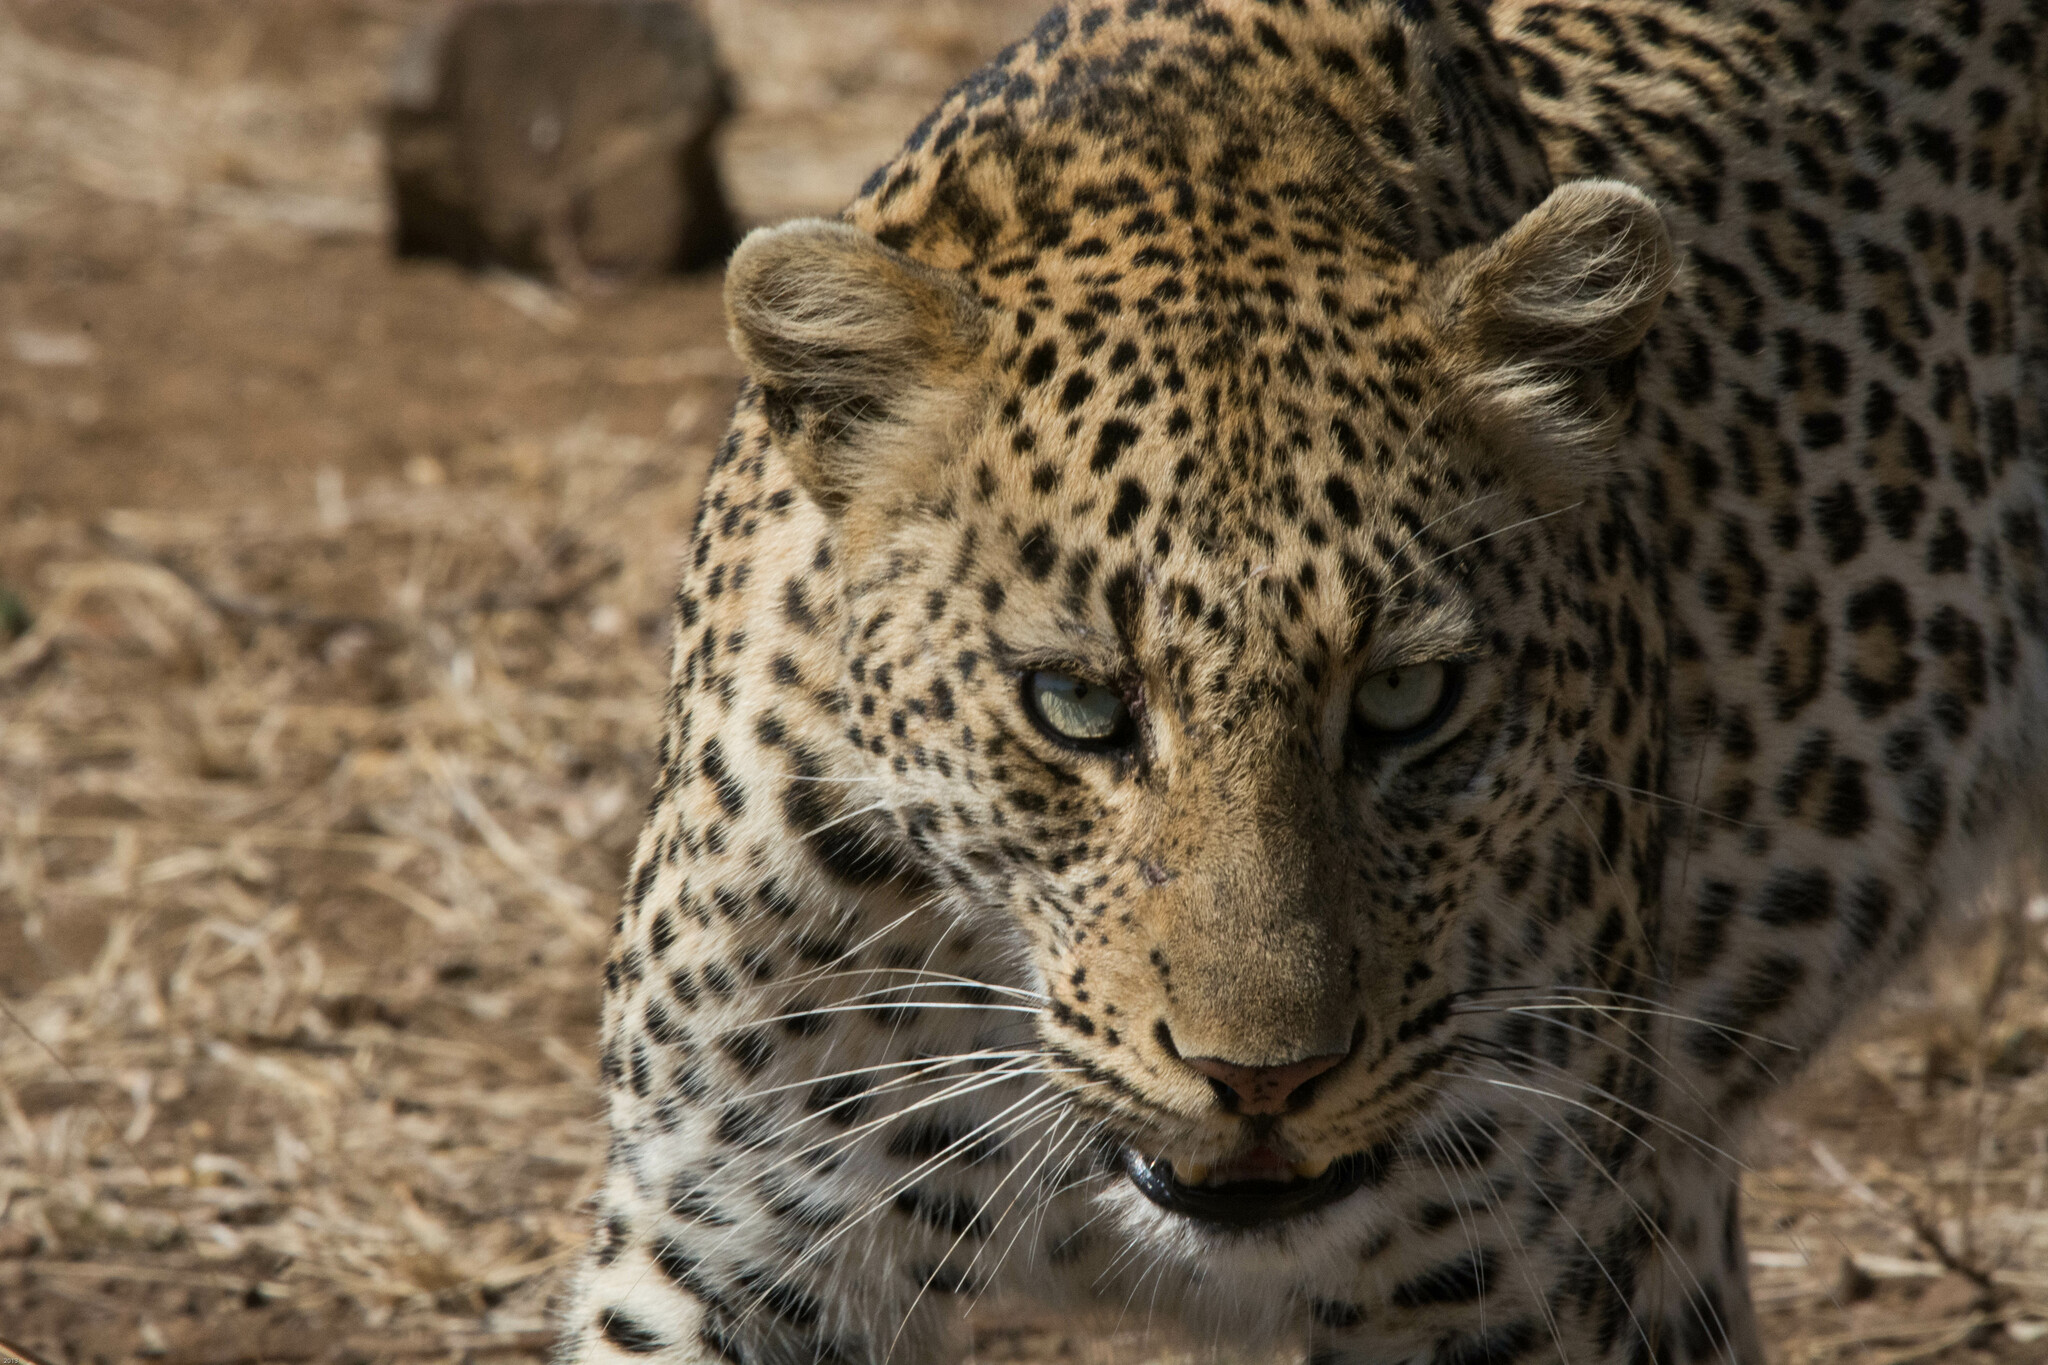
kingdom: Animalia
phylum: Chordata
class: Mammalia
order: Carnivora
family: Felidae
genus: Panthera
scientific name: Panthera pardus
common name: Leopard
